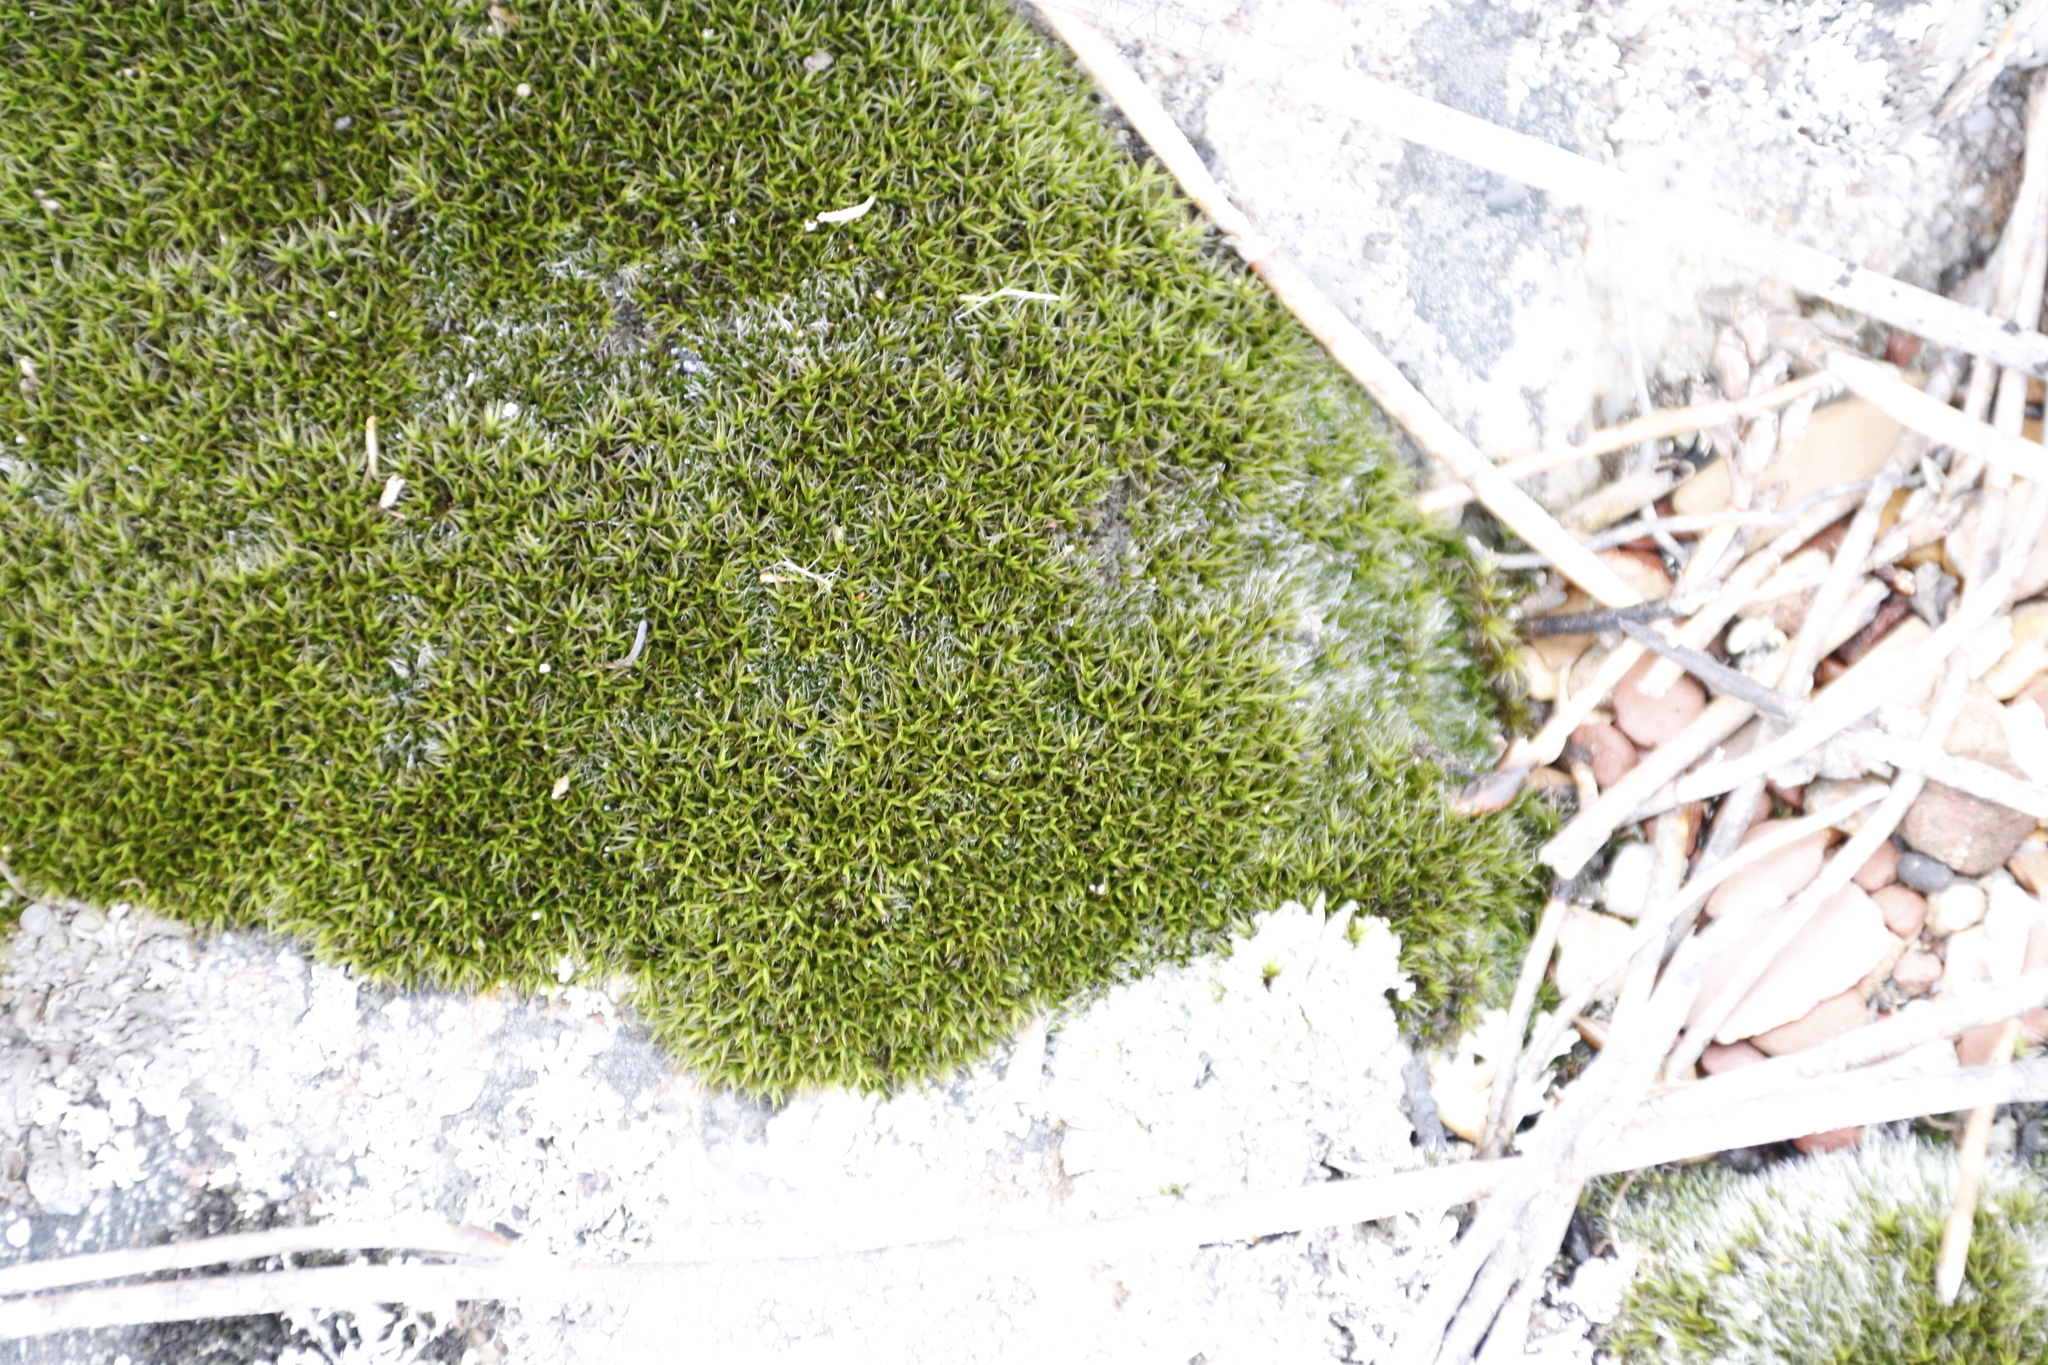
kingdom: Plantae
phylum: Bryophyta
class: Bryopsida
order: Grimmiales
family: Grimmiaceae
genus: Grimmia
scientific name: Grimmia consobrina
